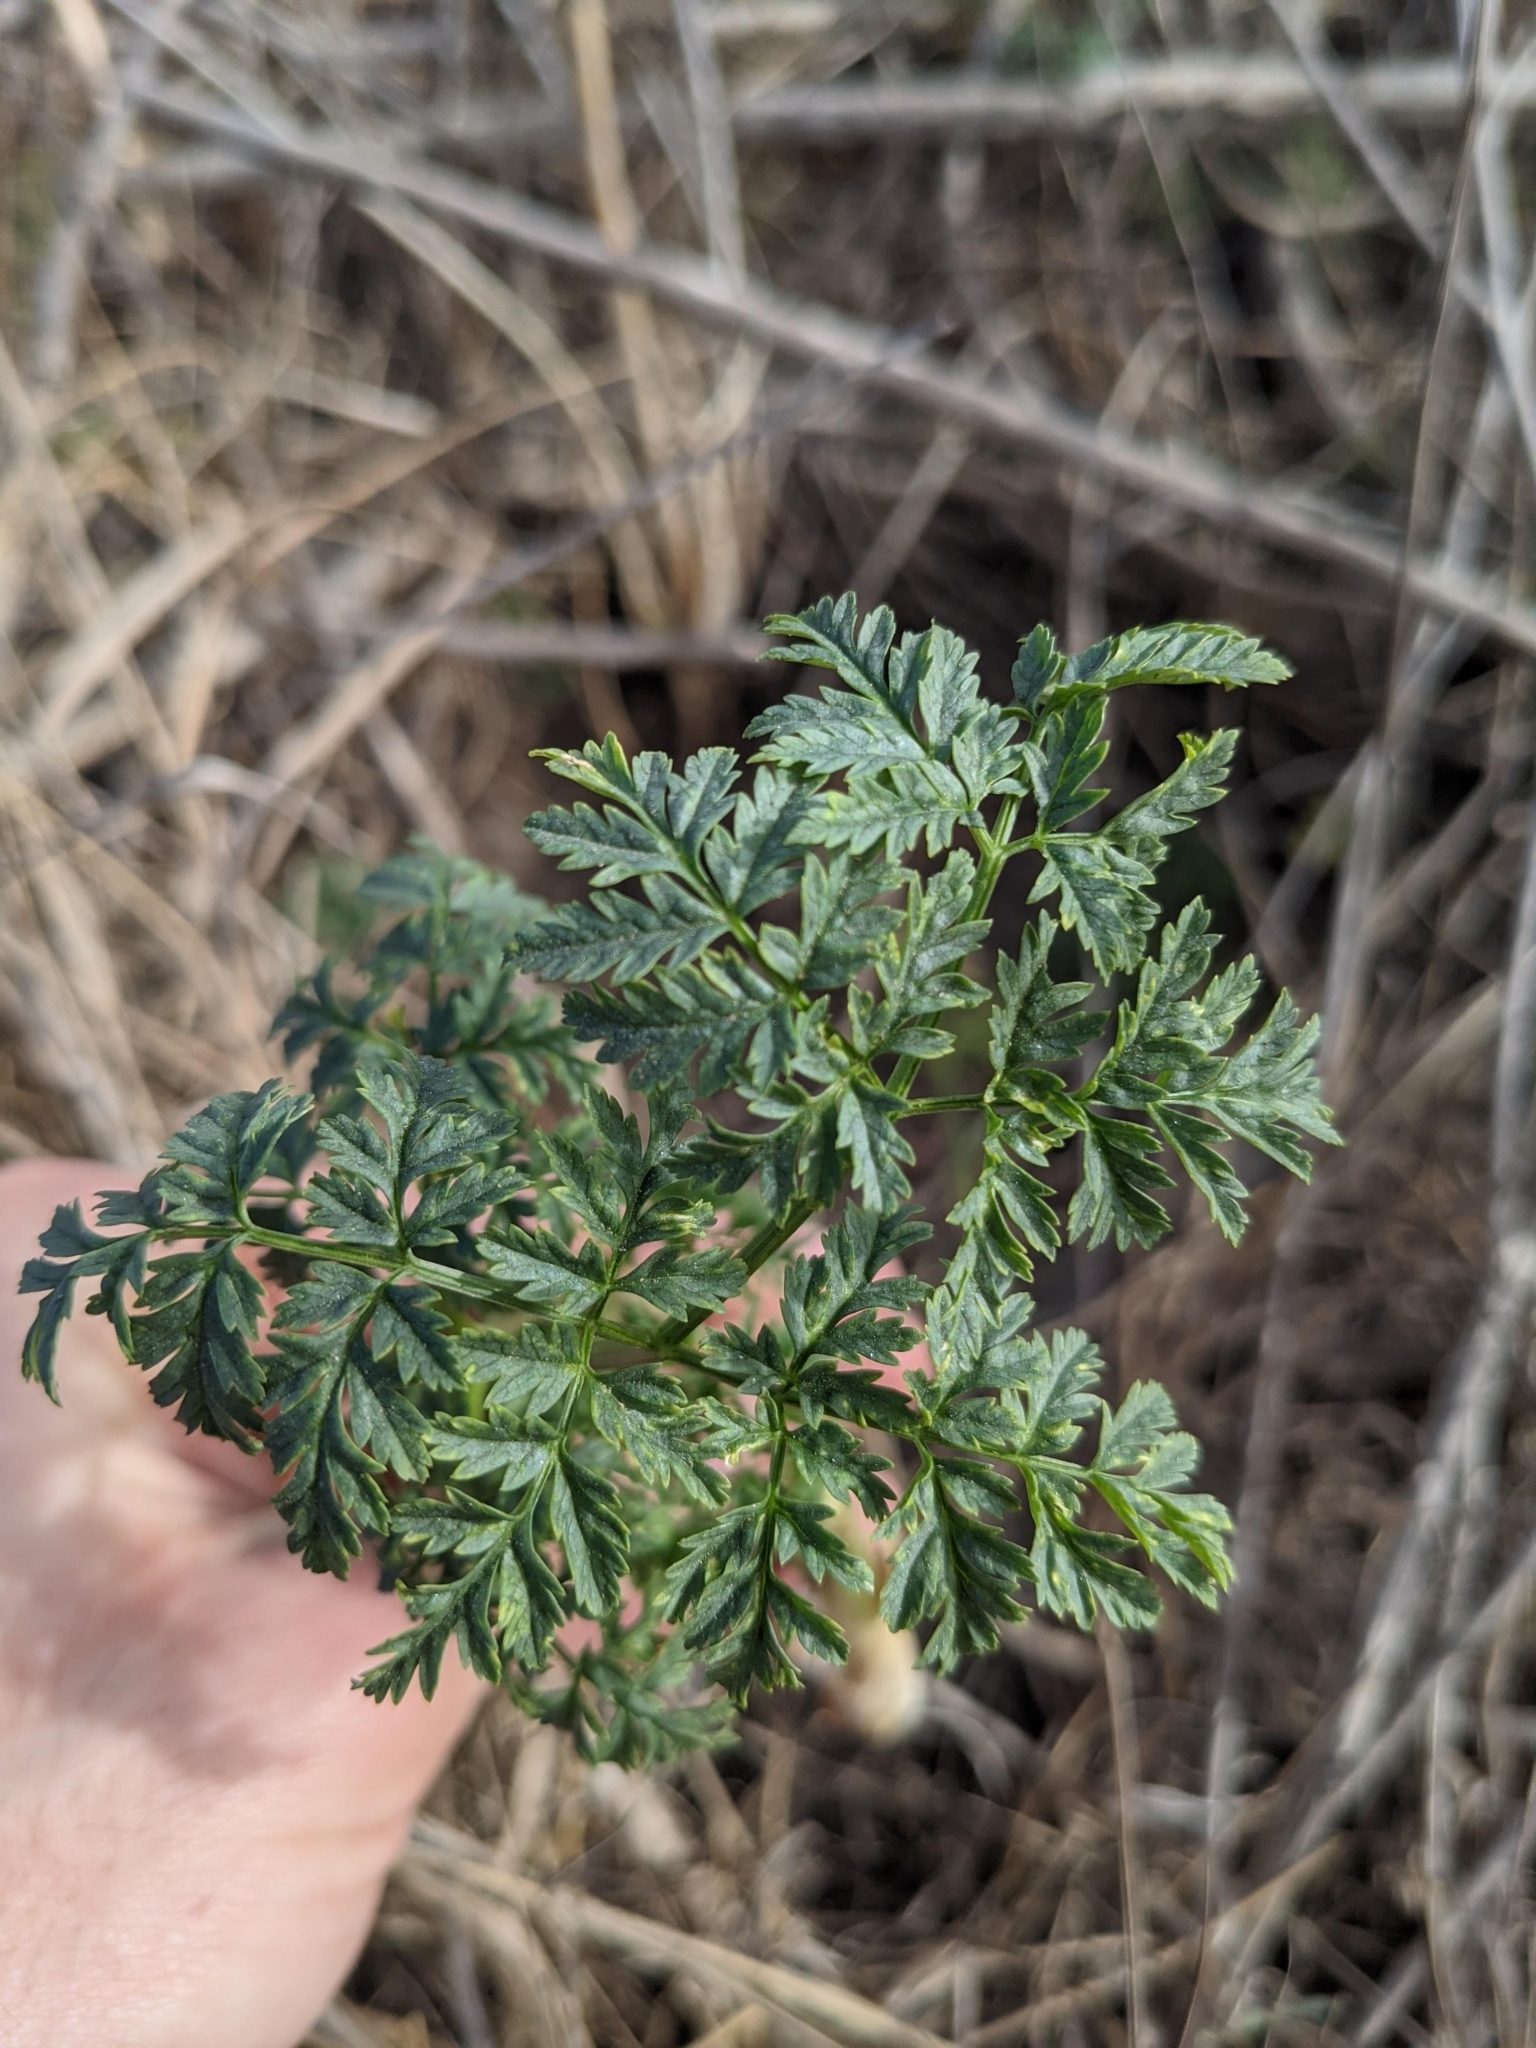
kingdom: Plantae
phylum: Tracheophyta
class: Magnoliopsida
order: Apiales
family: Apiaceae
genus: Conium
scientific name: Conium maculatum
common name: Hemlock
